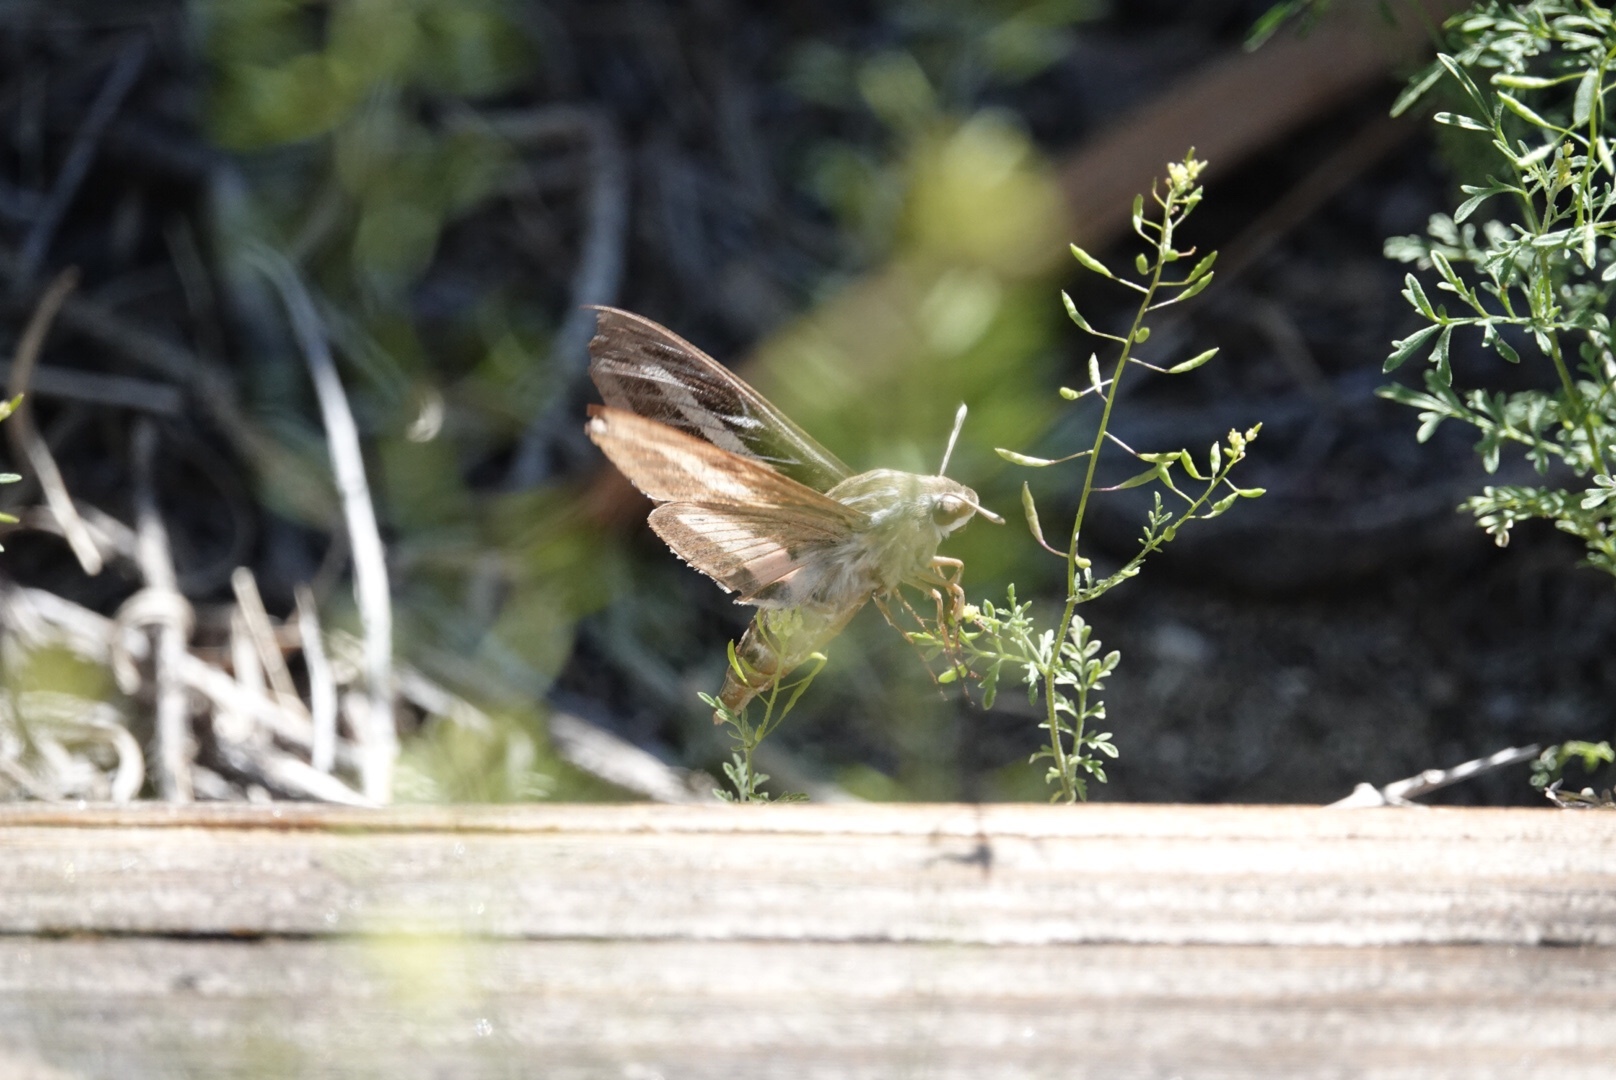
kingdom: Animalia
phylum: Arthropoda
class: Insecta
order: Lepidoptera
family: Sphingidae
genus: Hyles
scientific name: Hyles lineata
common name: White-lined sphinx
